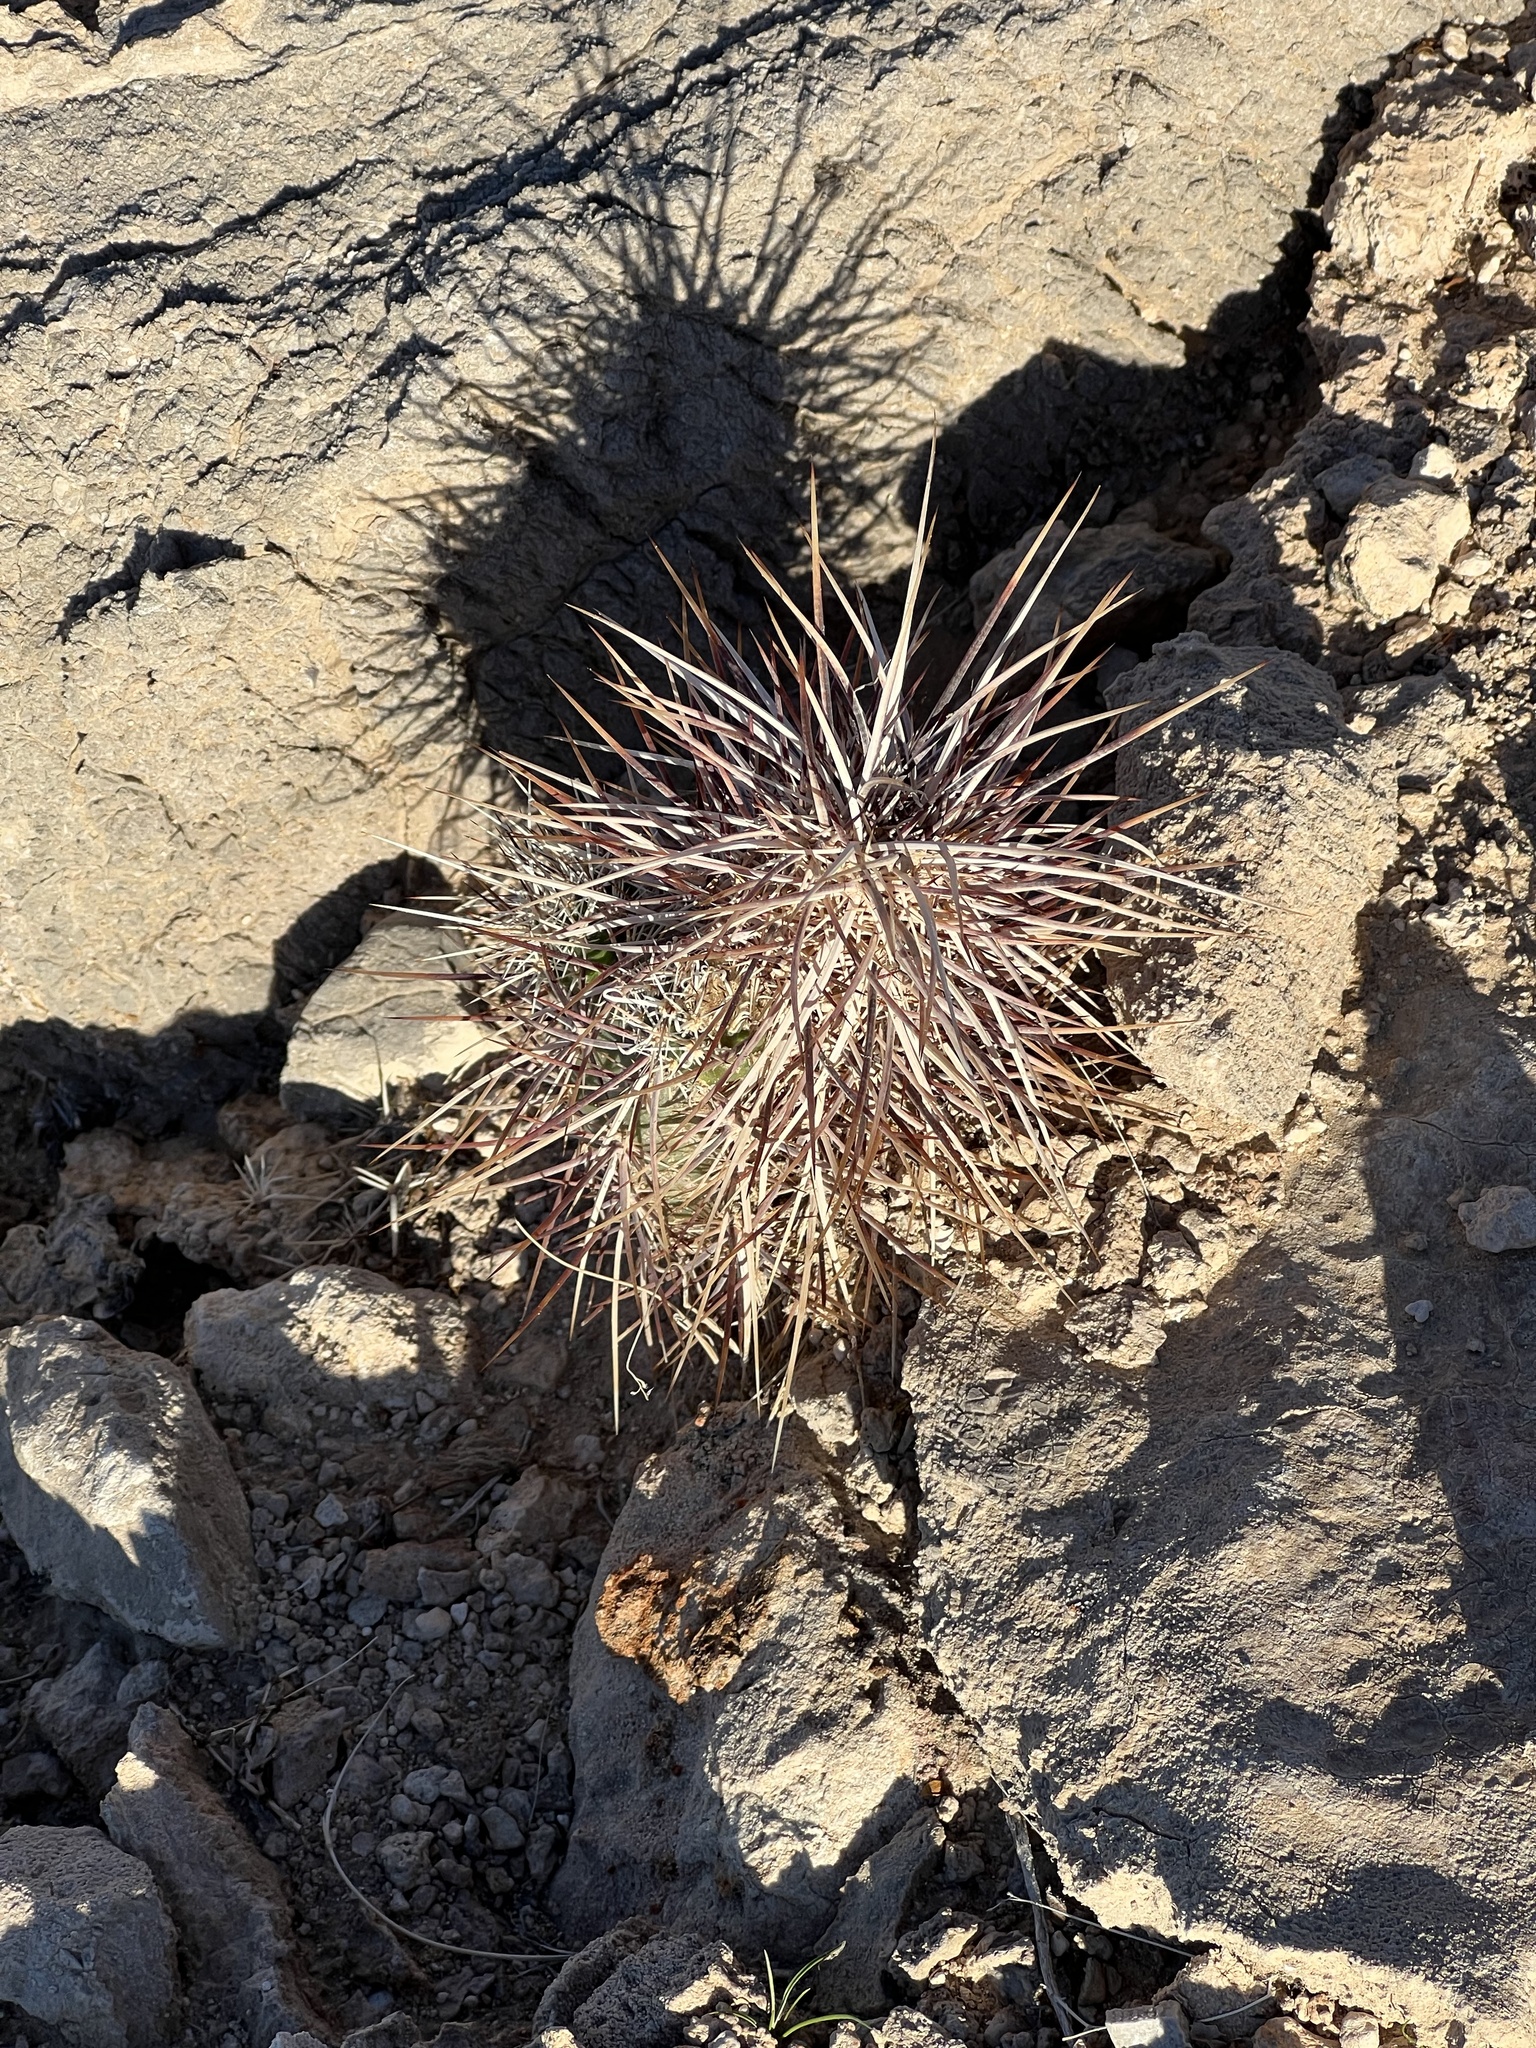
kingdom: Plantae
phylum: Tracheophyta
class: Magnoliopsida
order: Caryophyllales
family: Cactaceae
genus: Echinocereus
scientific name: Echinocereus engelmannii
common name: Engelmann's hedgehog cactus
